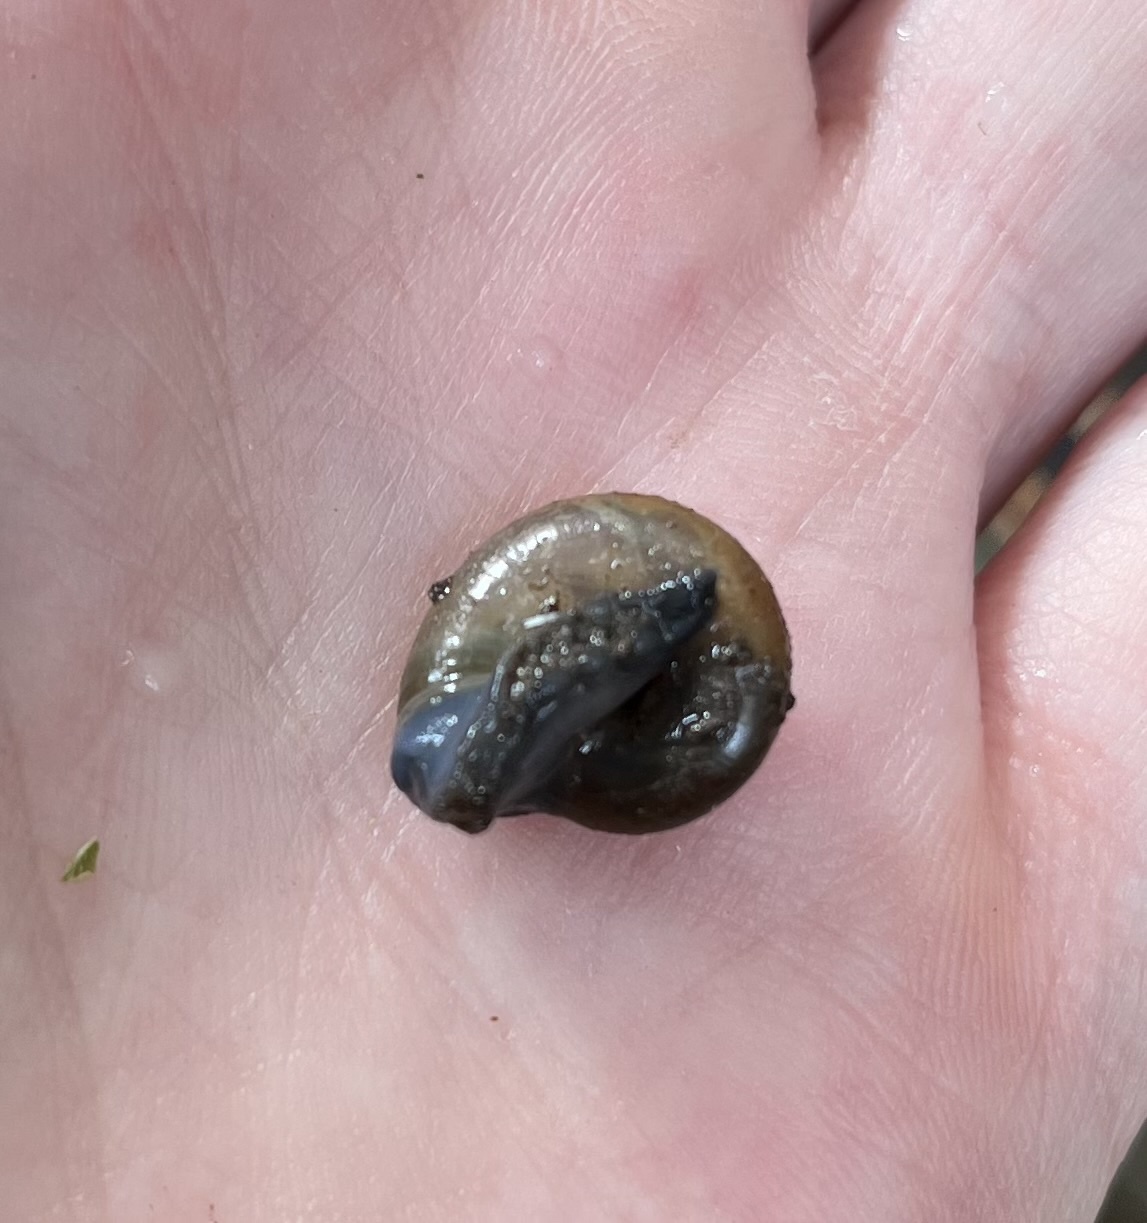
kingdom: Animalia
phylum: Mollusca
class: Gastropoda
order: Stylommatophora
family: Gastrodontidae
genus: Zonitoides
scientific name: Zonitoides arboreus
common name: Quick gloss
